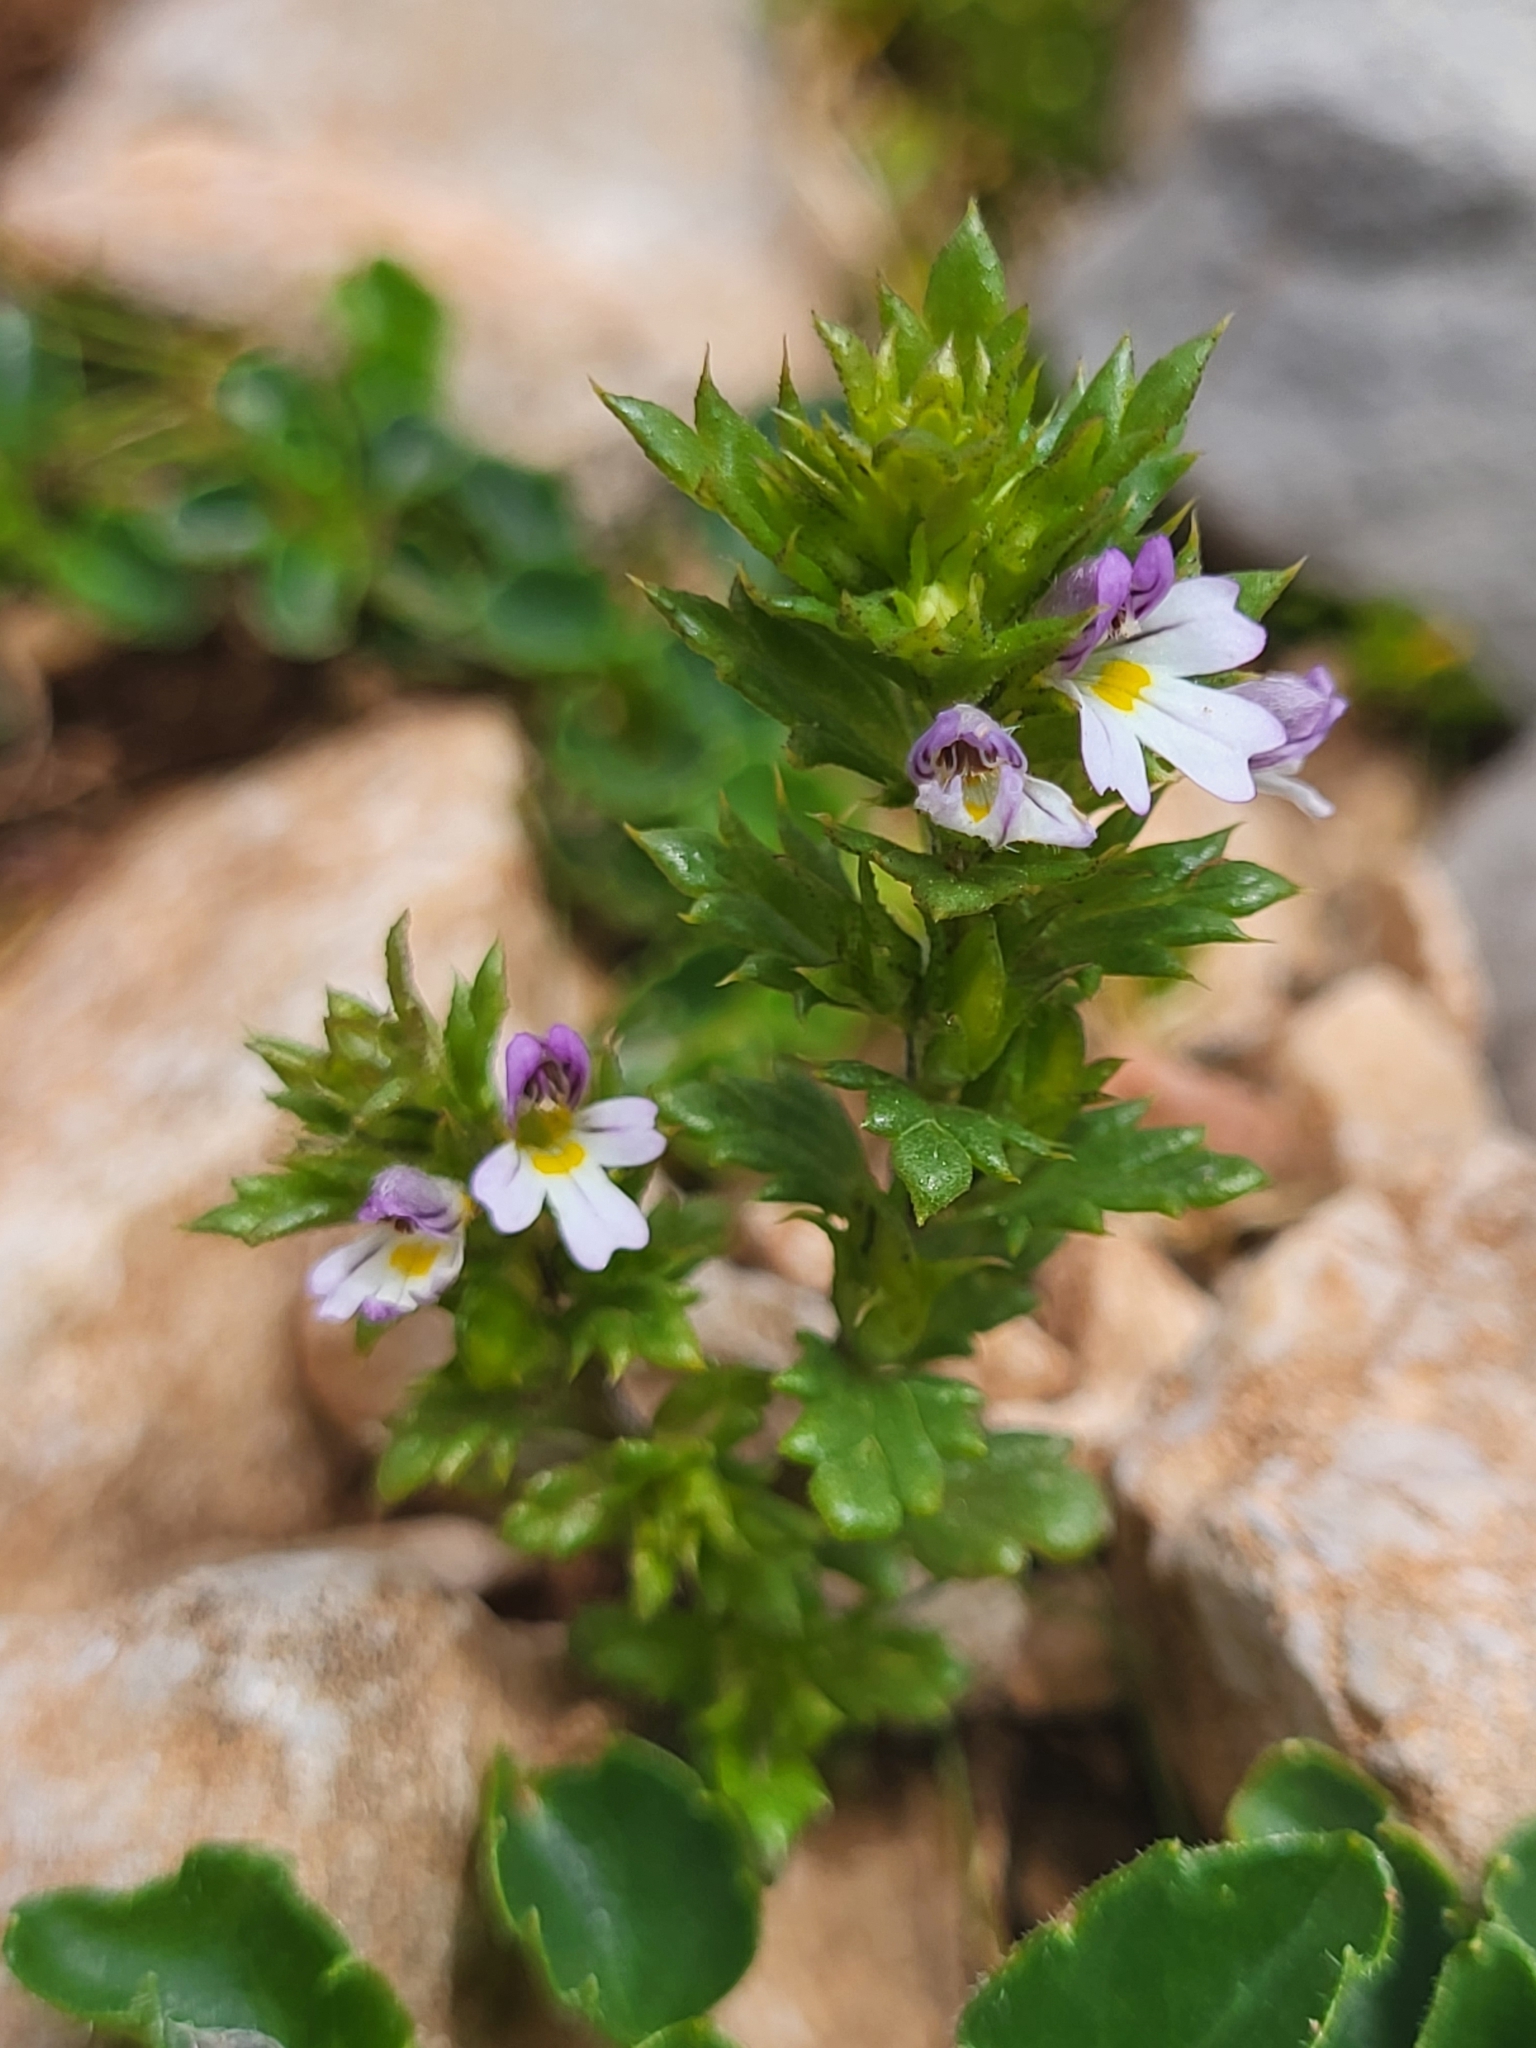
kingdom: Plantae
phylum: Tracheophyta
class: Magnoliopsida
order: Lamiales
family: Orobanchaceae
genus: Euphrasia
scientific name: Euphrasia salisburgensis
